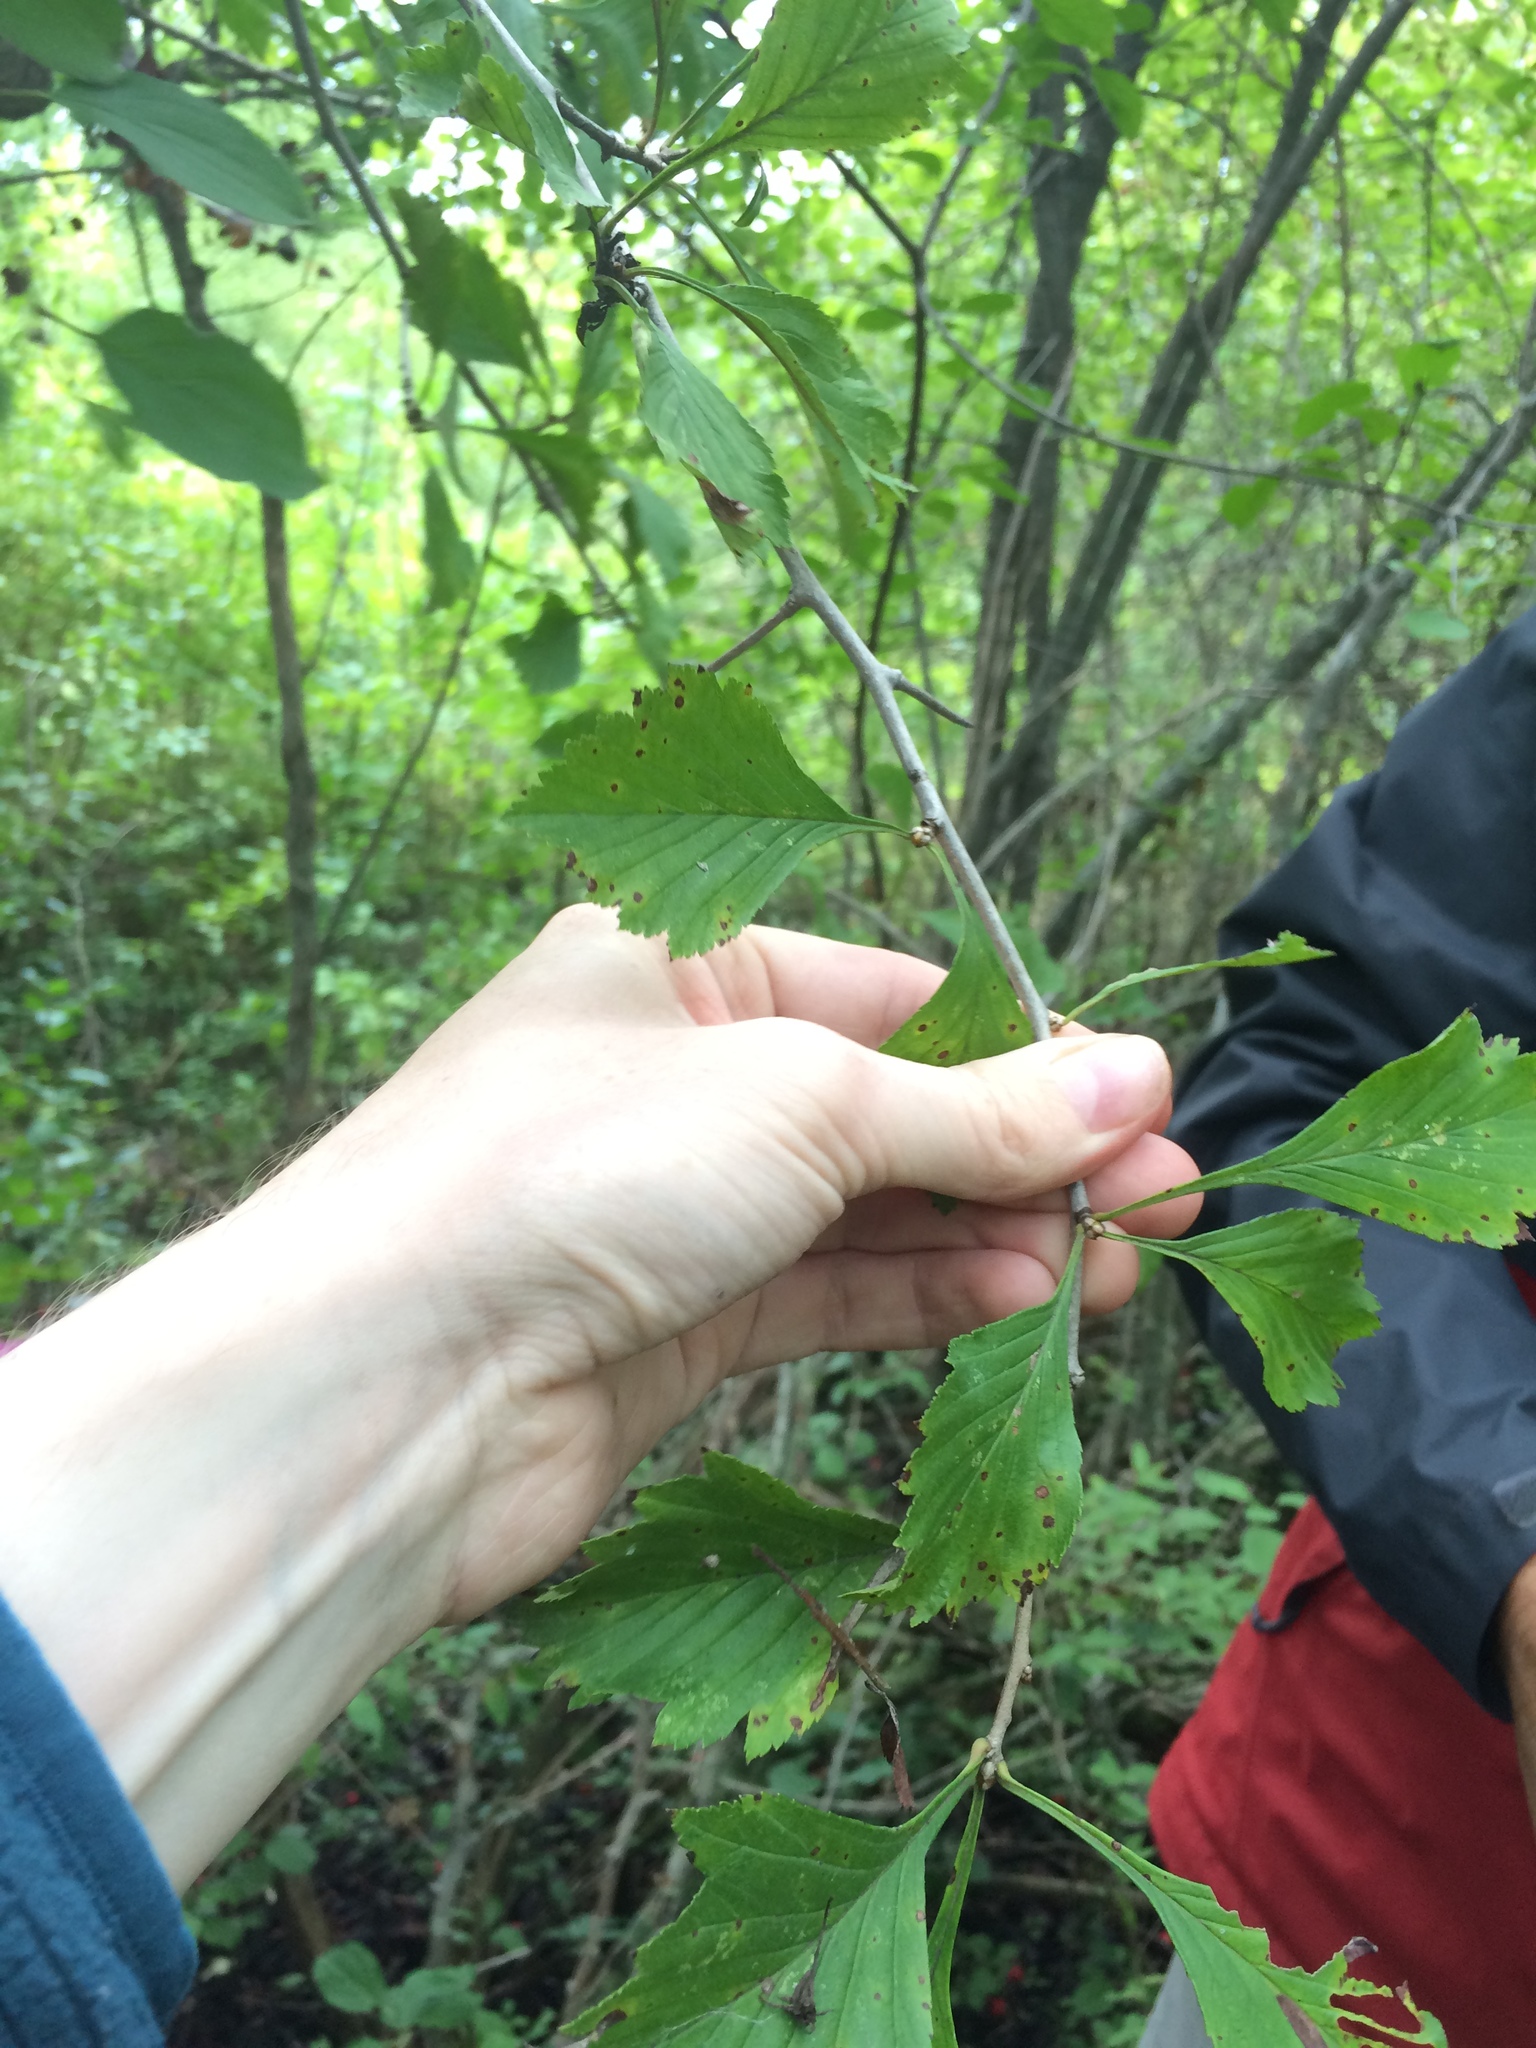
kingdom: Plantae
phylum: Tracheophyta
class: Magnoliopsida
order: Rosales
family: Rosaceae
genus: Crataegus
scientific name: Crataegus punctata
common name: Dotted hawthorn
